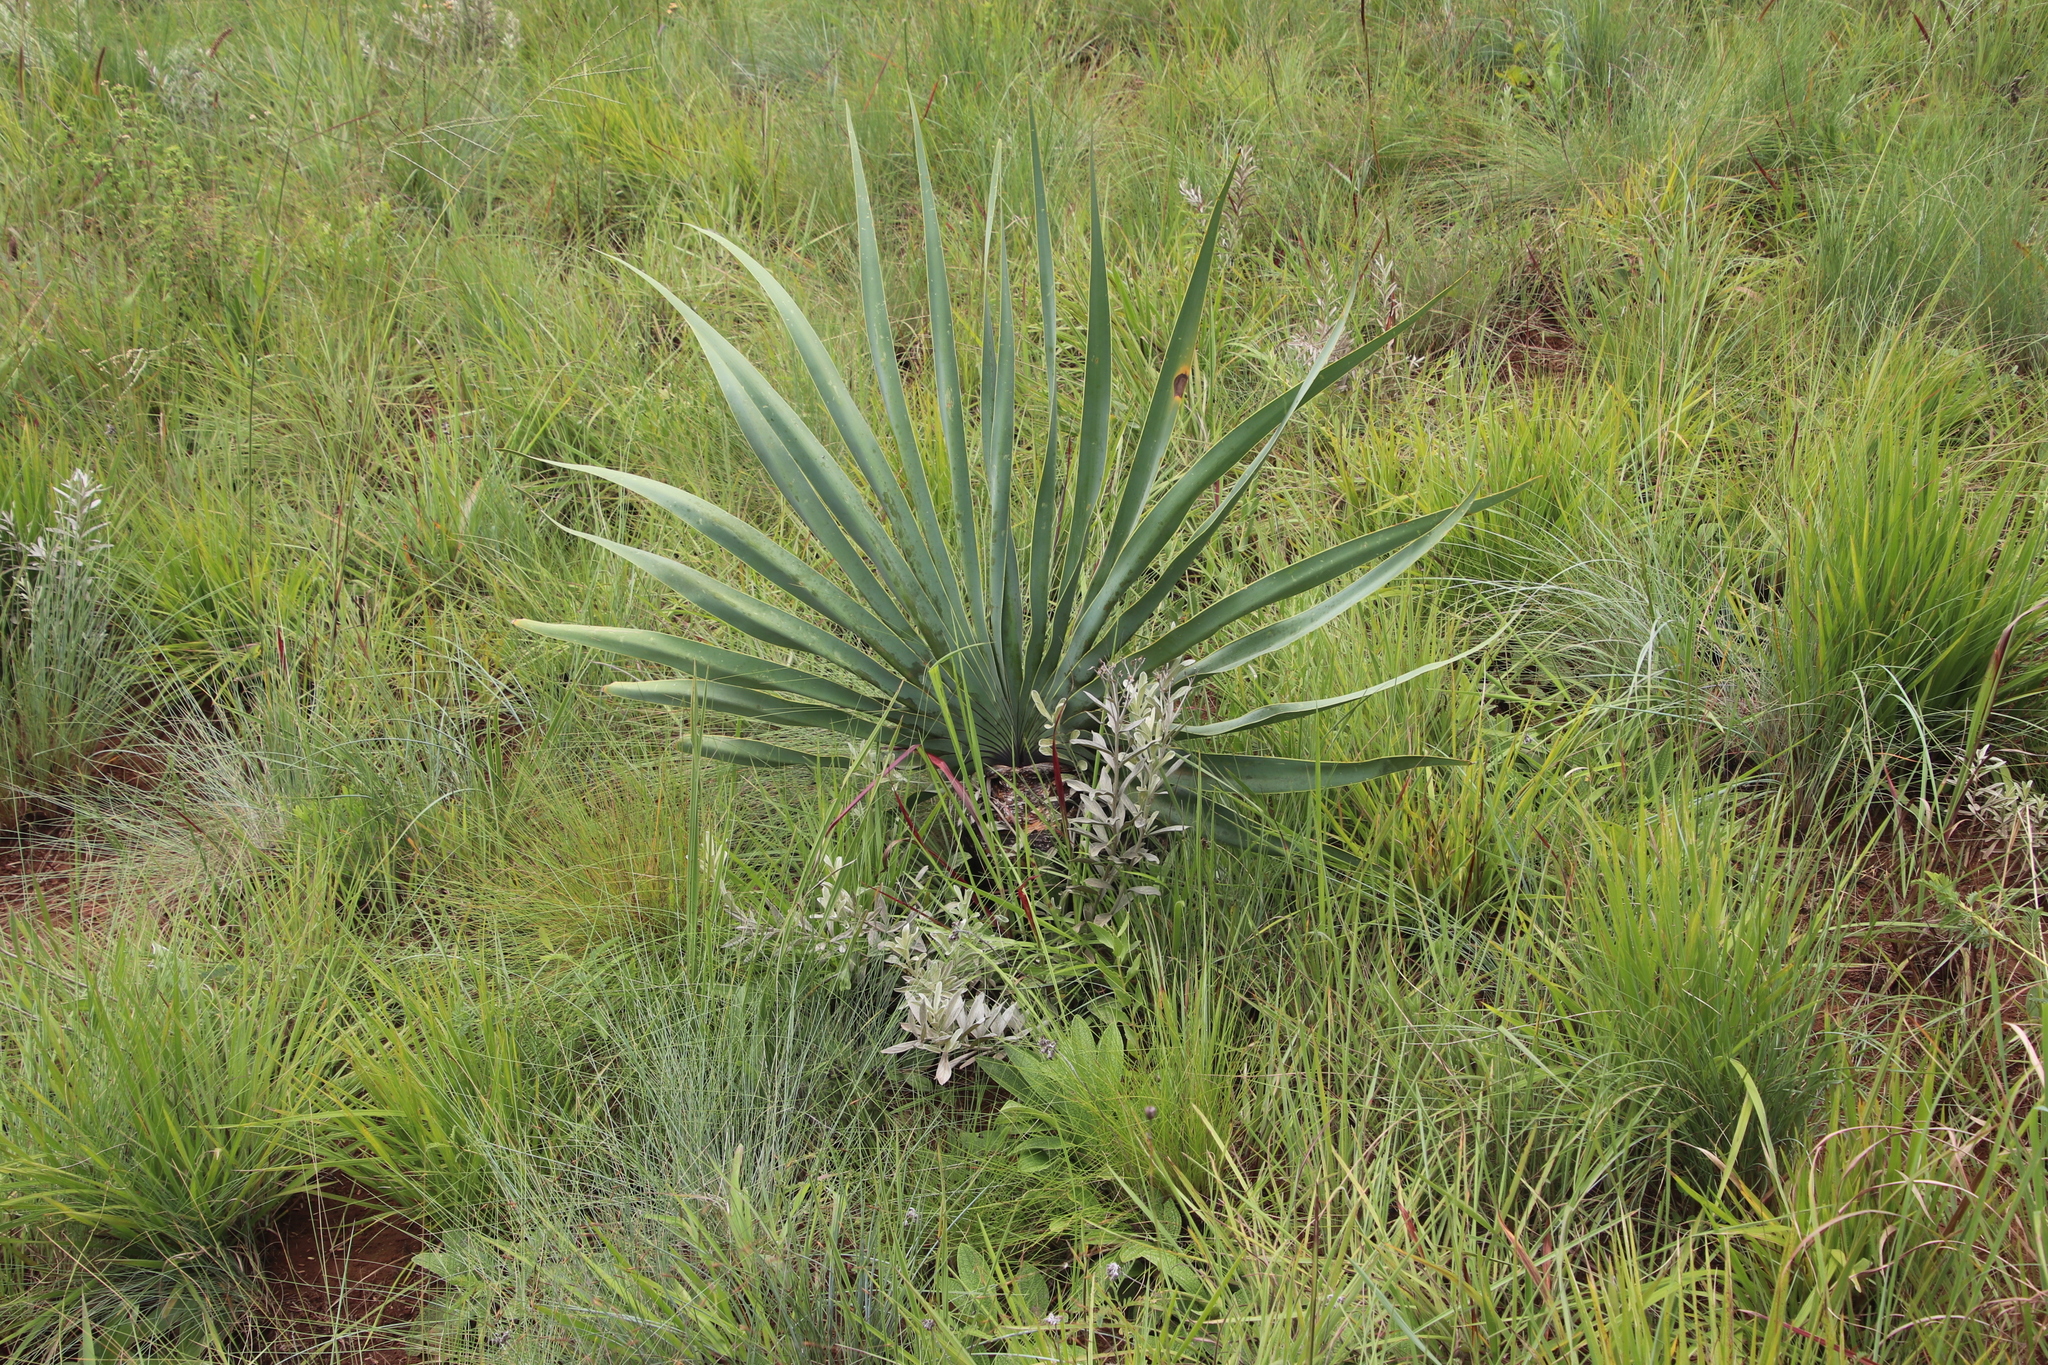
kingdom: Plantae
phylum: Tracheophyta
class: Liliopsida
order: Asparagales
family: Amaryllidaceae
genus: Boophone
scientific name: Boophone disticha
